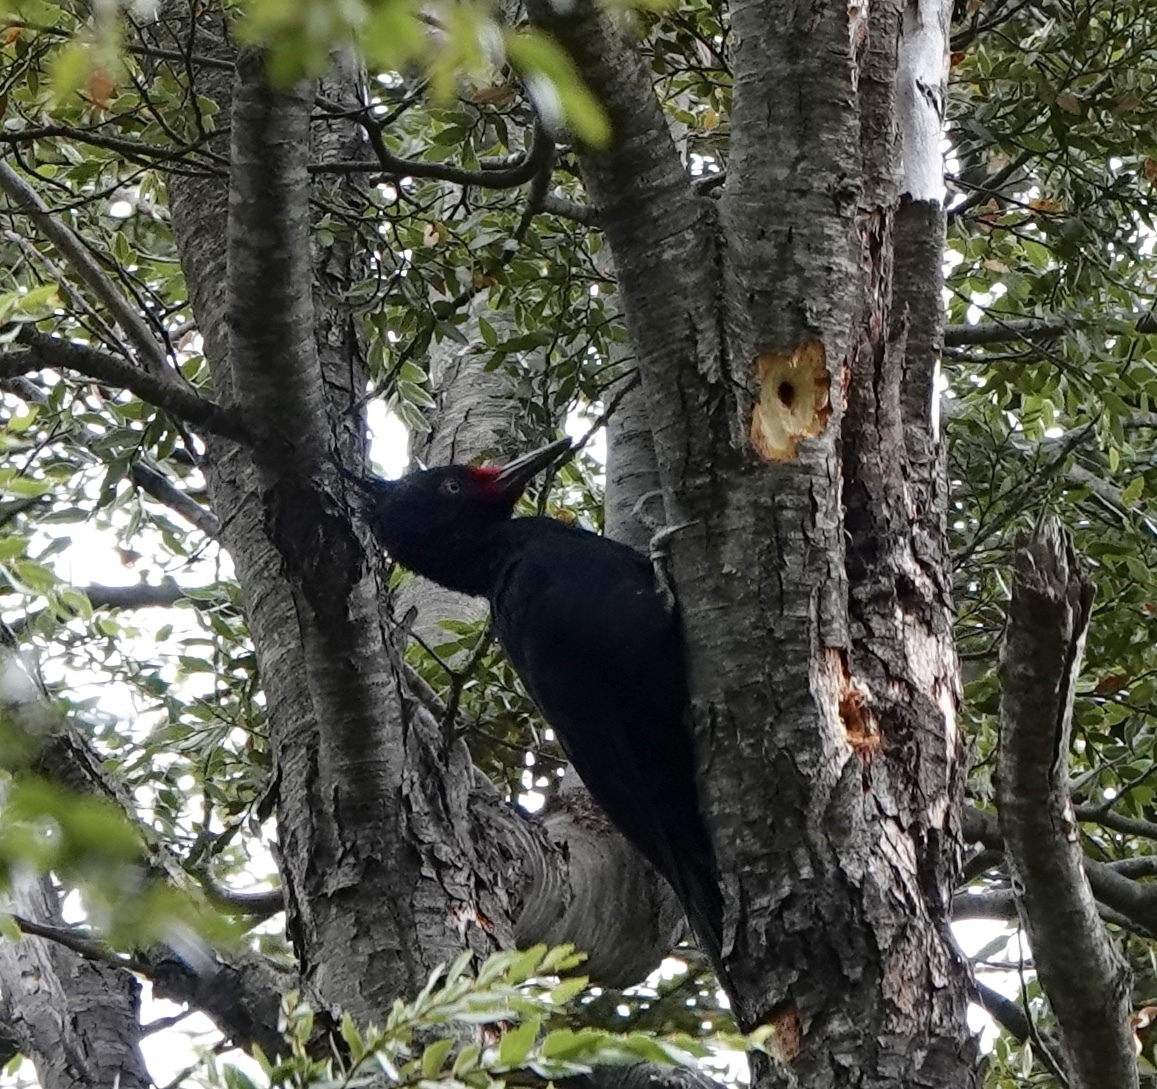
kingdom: Animalia
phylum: Chordata
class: Aves
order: Piciformes
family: Picidae
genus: Campephilus
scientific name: Campephilus magellanicus
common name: Magellanic woodpecker
